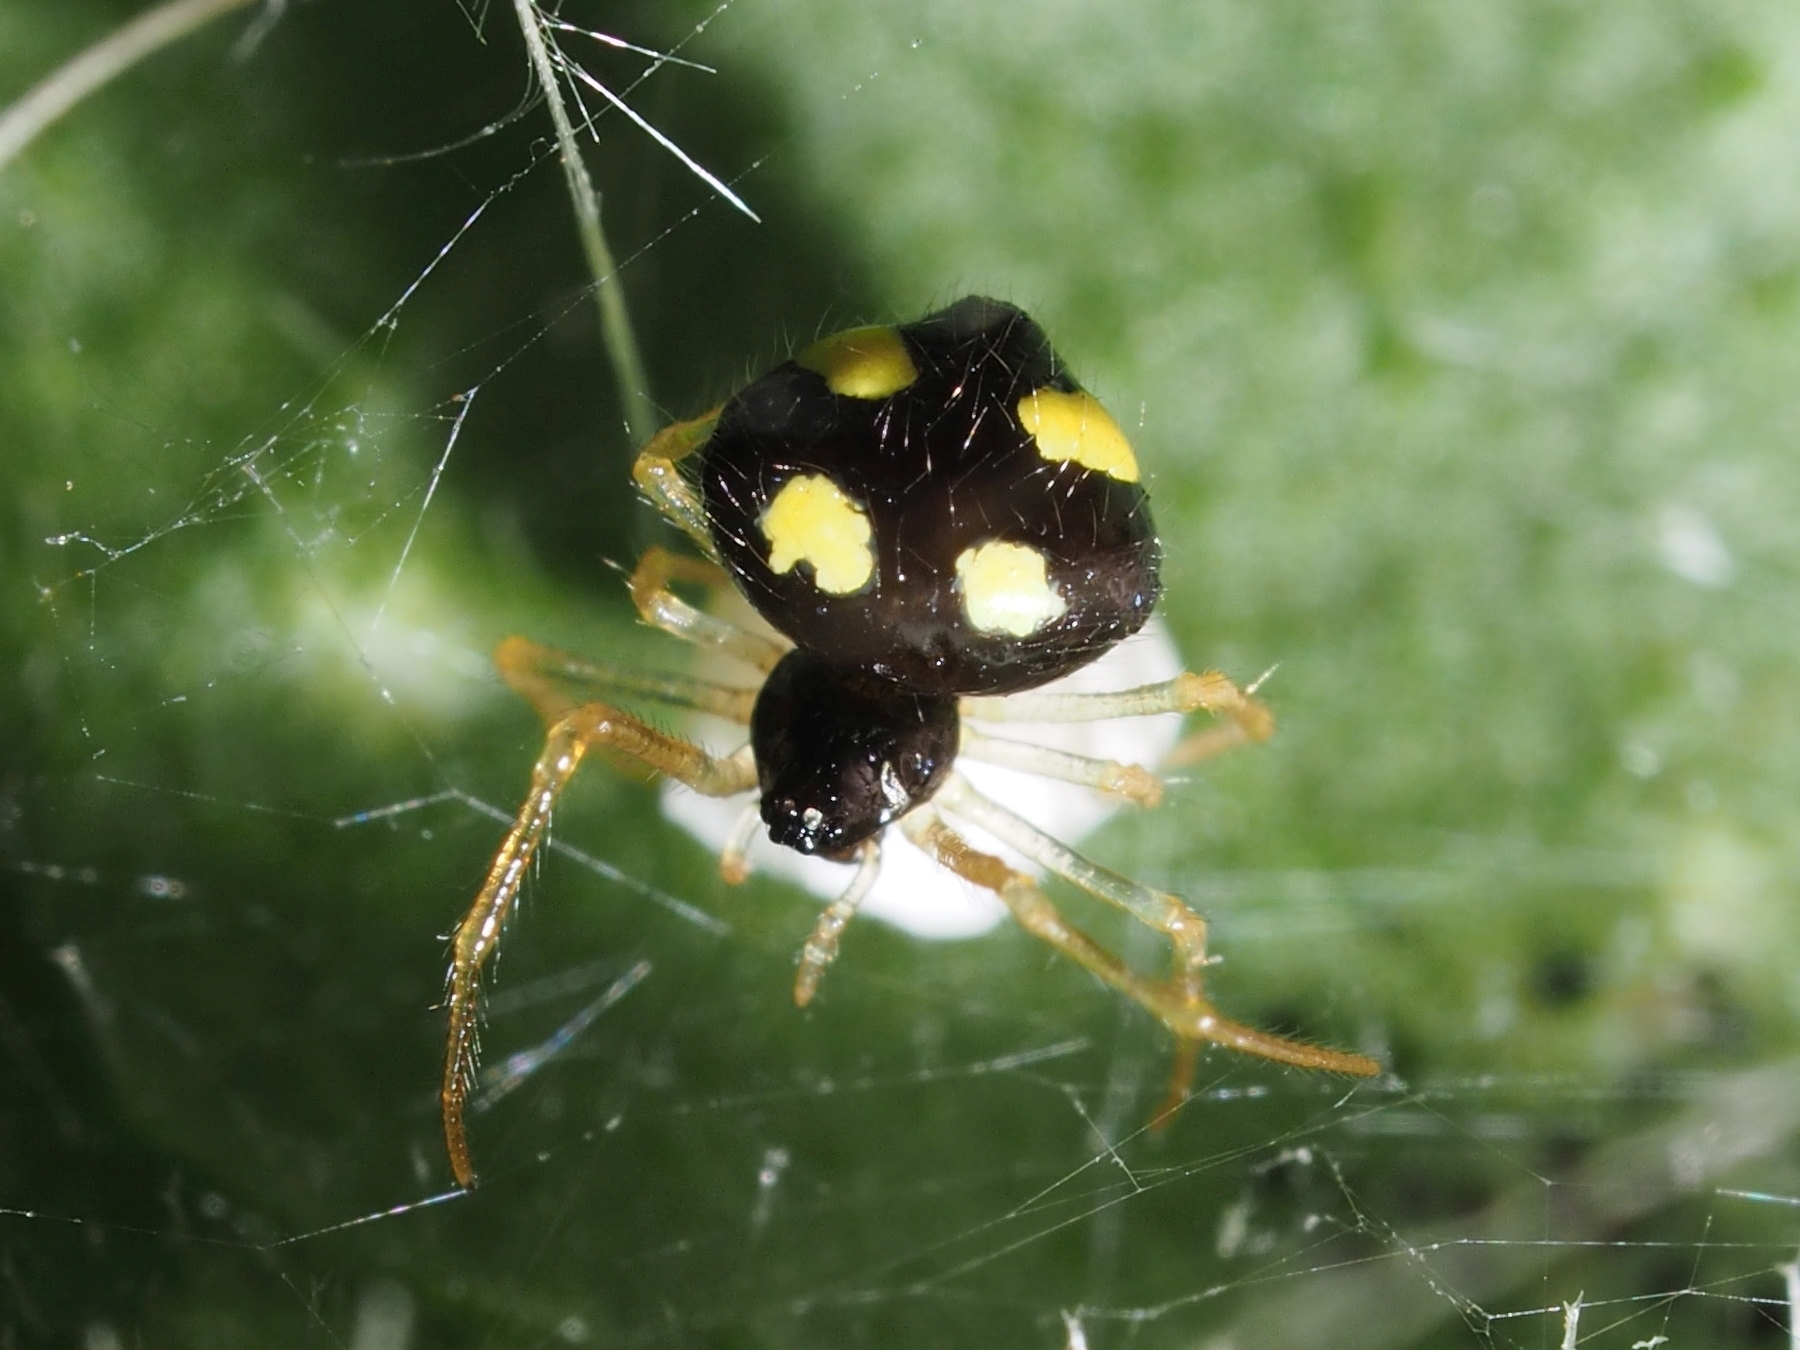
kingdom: Animalia
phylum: Arthropoda
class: Arachnida
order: Araneae
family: Theridiidae
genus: Theridula
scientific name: Theridula gonygaster
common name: Cobweb spiders
